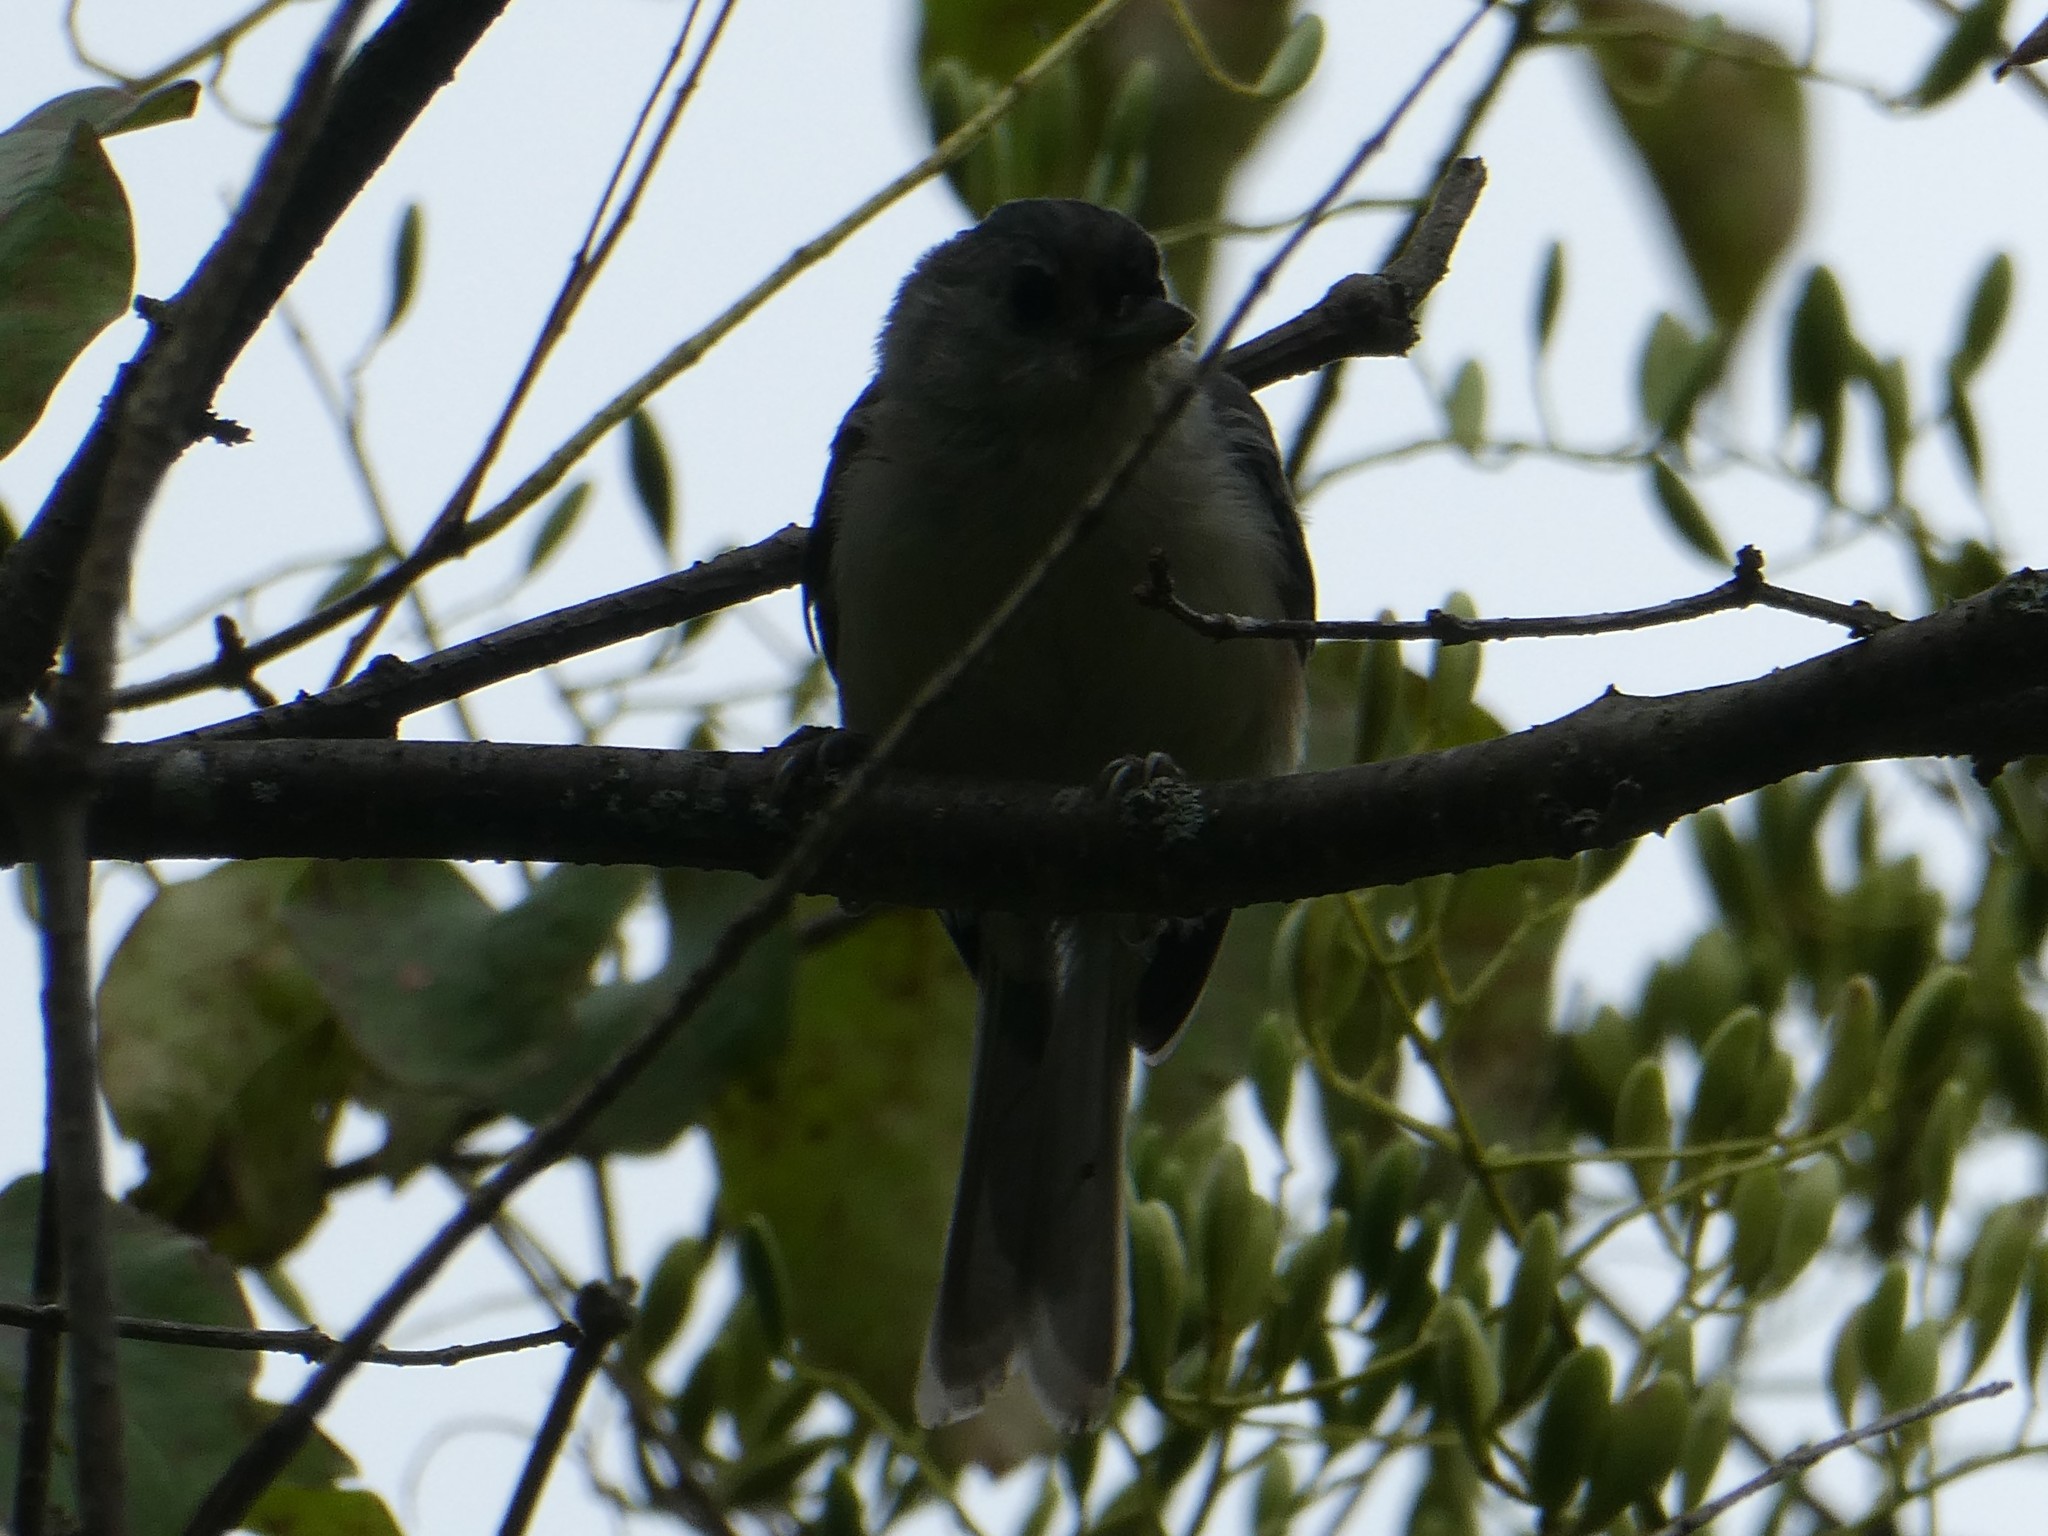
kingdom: Animalia
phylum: Chordata
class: Aves
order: Passeriformes
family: Paridae
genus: Baeolophus
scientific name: Baeolophus bicolor
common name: Tufted titmouse
